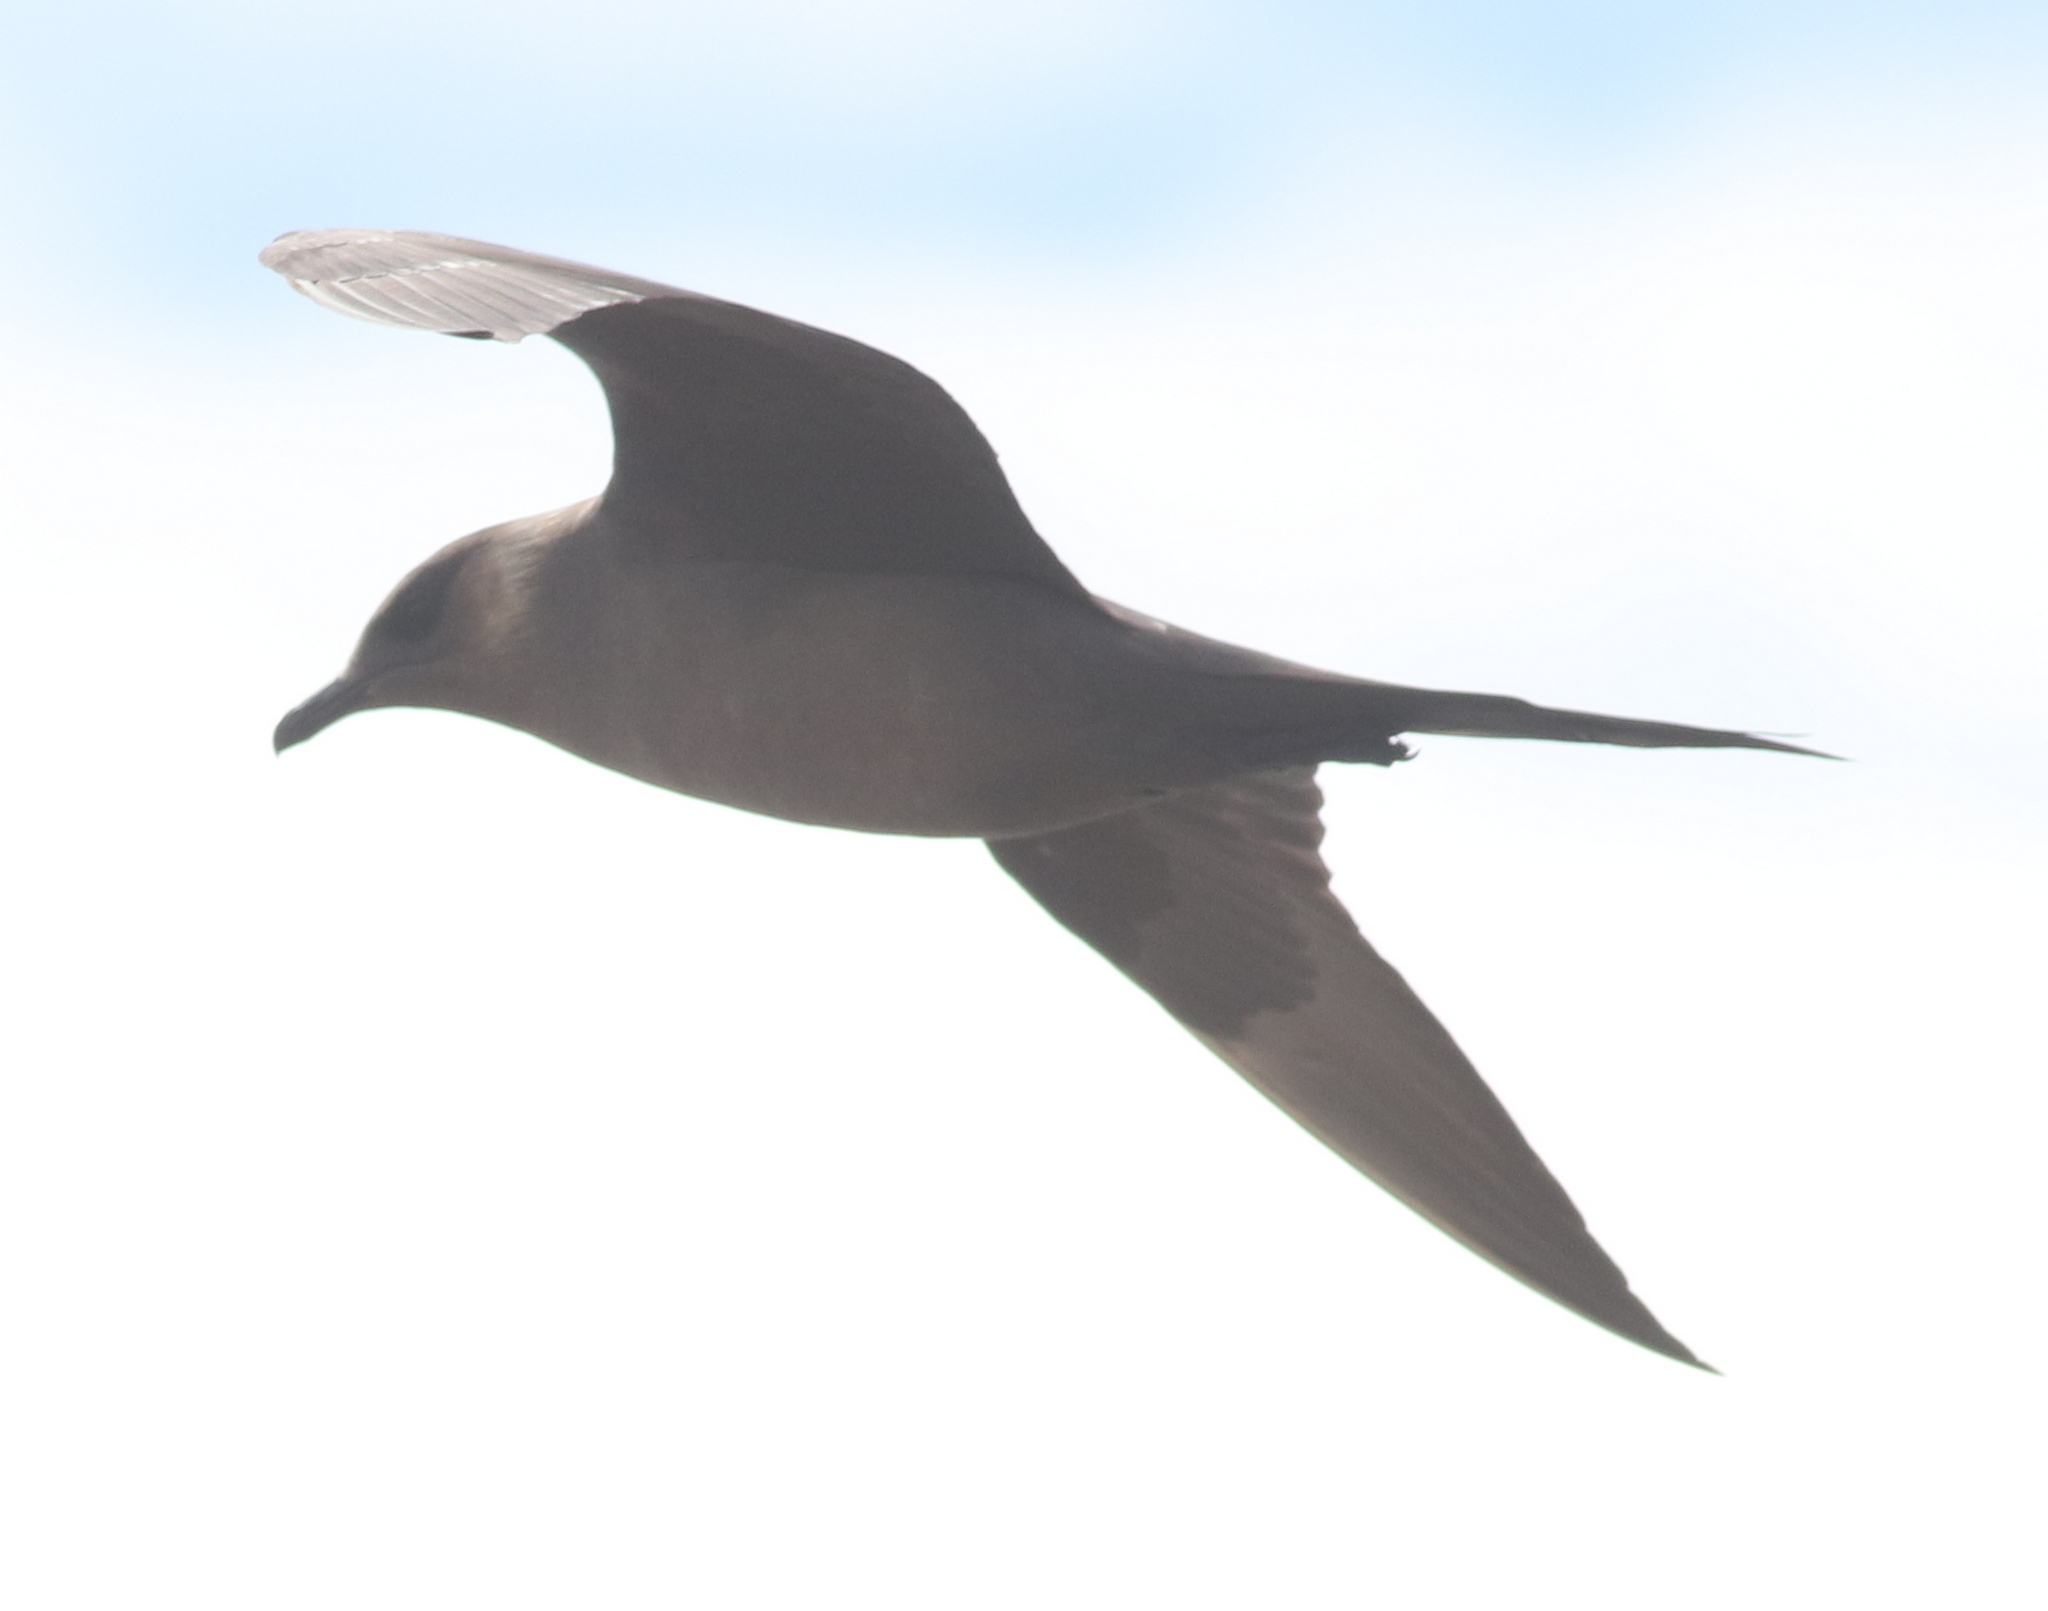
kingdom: Animalia
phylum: Chordata
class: Aves
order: Charadriiformes
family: Stercorariidae
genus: Stercorarius
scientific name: Stercorarius parasiticus
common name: Parasitic jaeger
